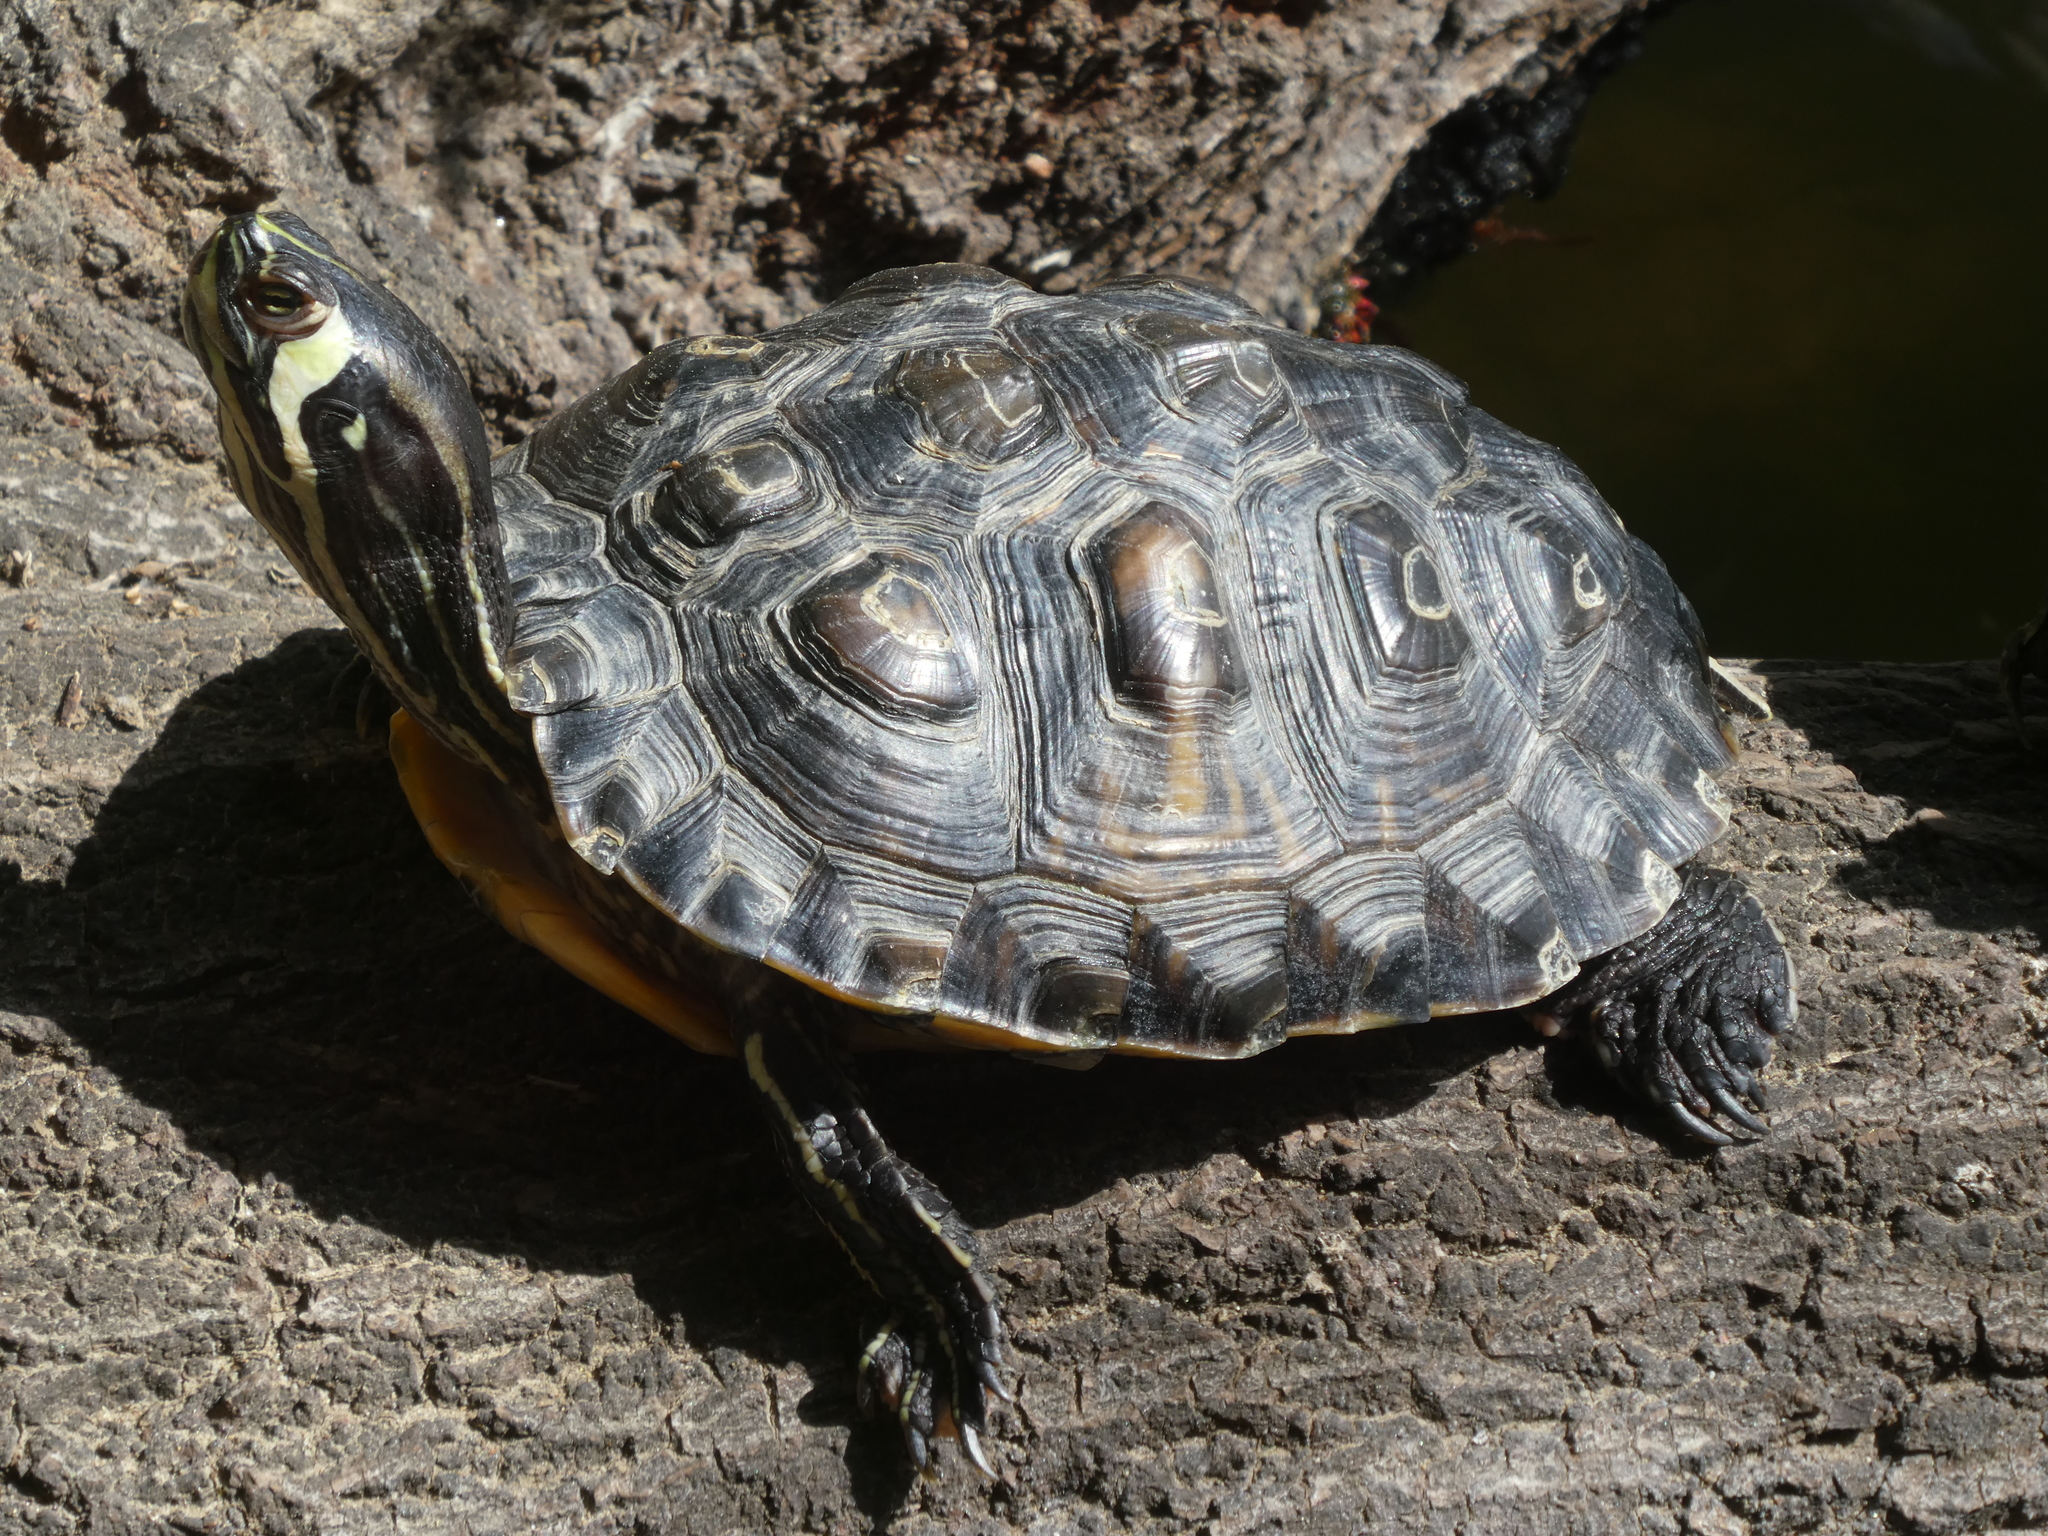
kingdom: Animalia
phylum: Chordata
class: Testudines
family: Emydidae
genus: Trachemys
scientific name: Trachemys scripta
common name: Slider
